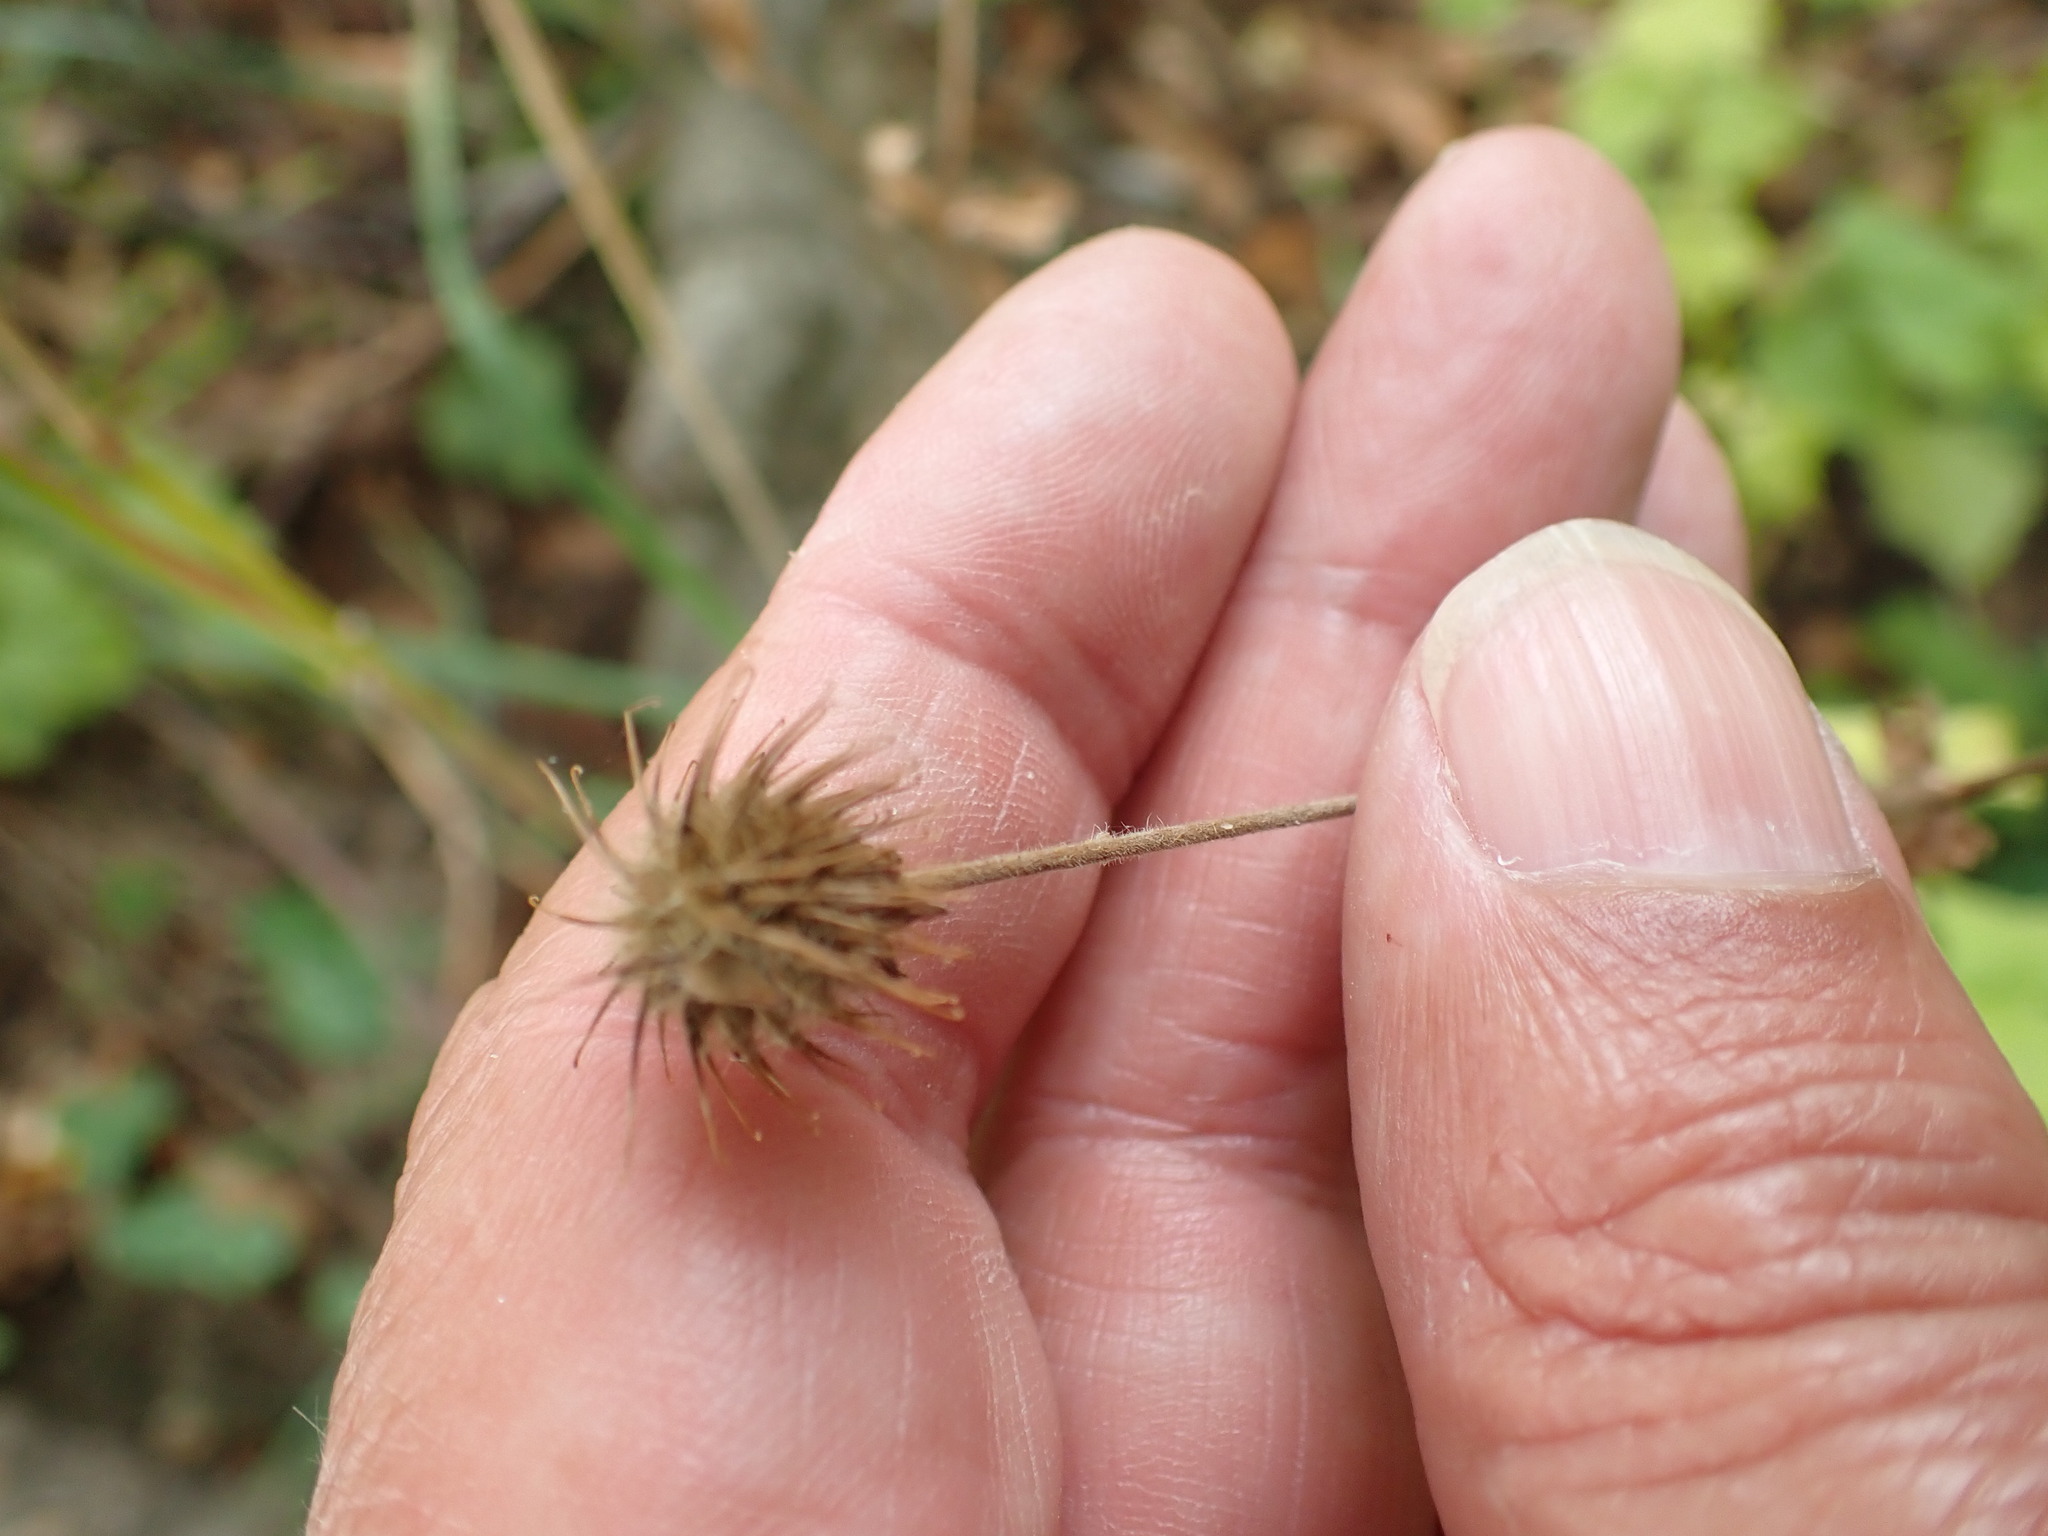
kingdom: Plantae
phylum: Tracheophyta
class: Magnoliopsida
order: Rosales
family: Rosaceae
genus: Geum
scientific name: Geum urbanum
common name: Wood avens
